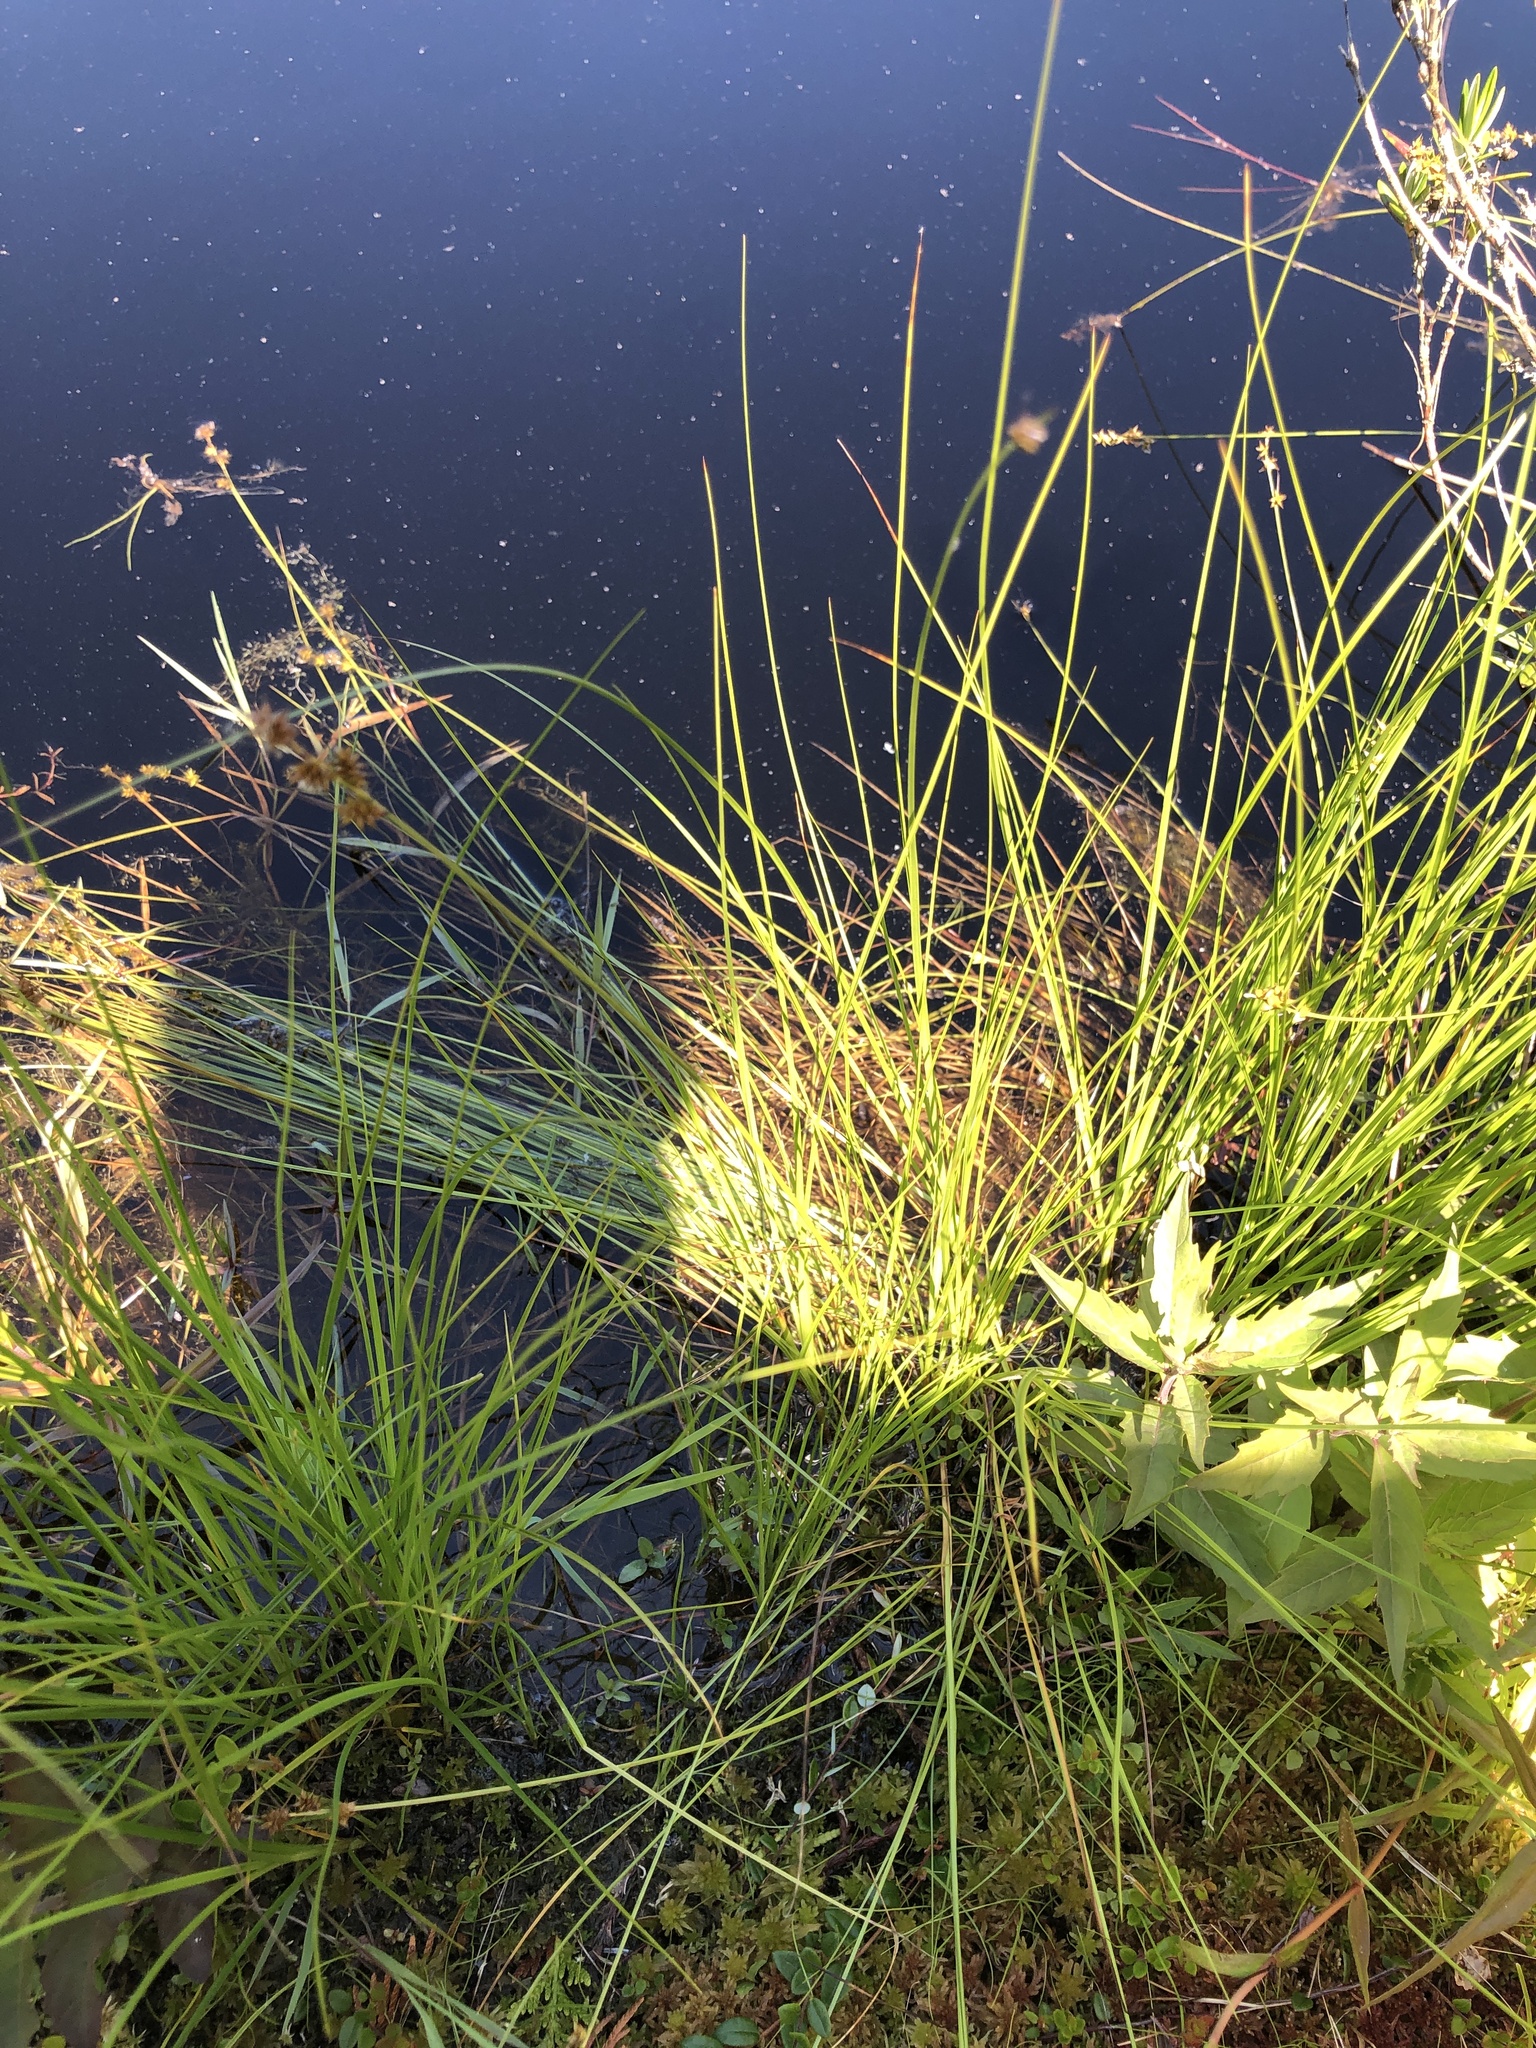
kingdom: Plantae
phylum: Tracheophyta
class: Liliopsida
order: Poales
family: Cyperaceae
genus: Carex
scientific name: Carex echinata
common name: Star sedge
